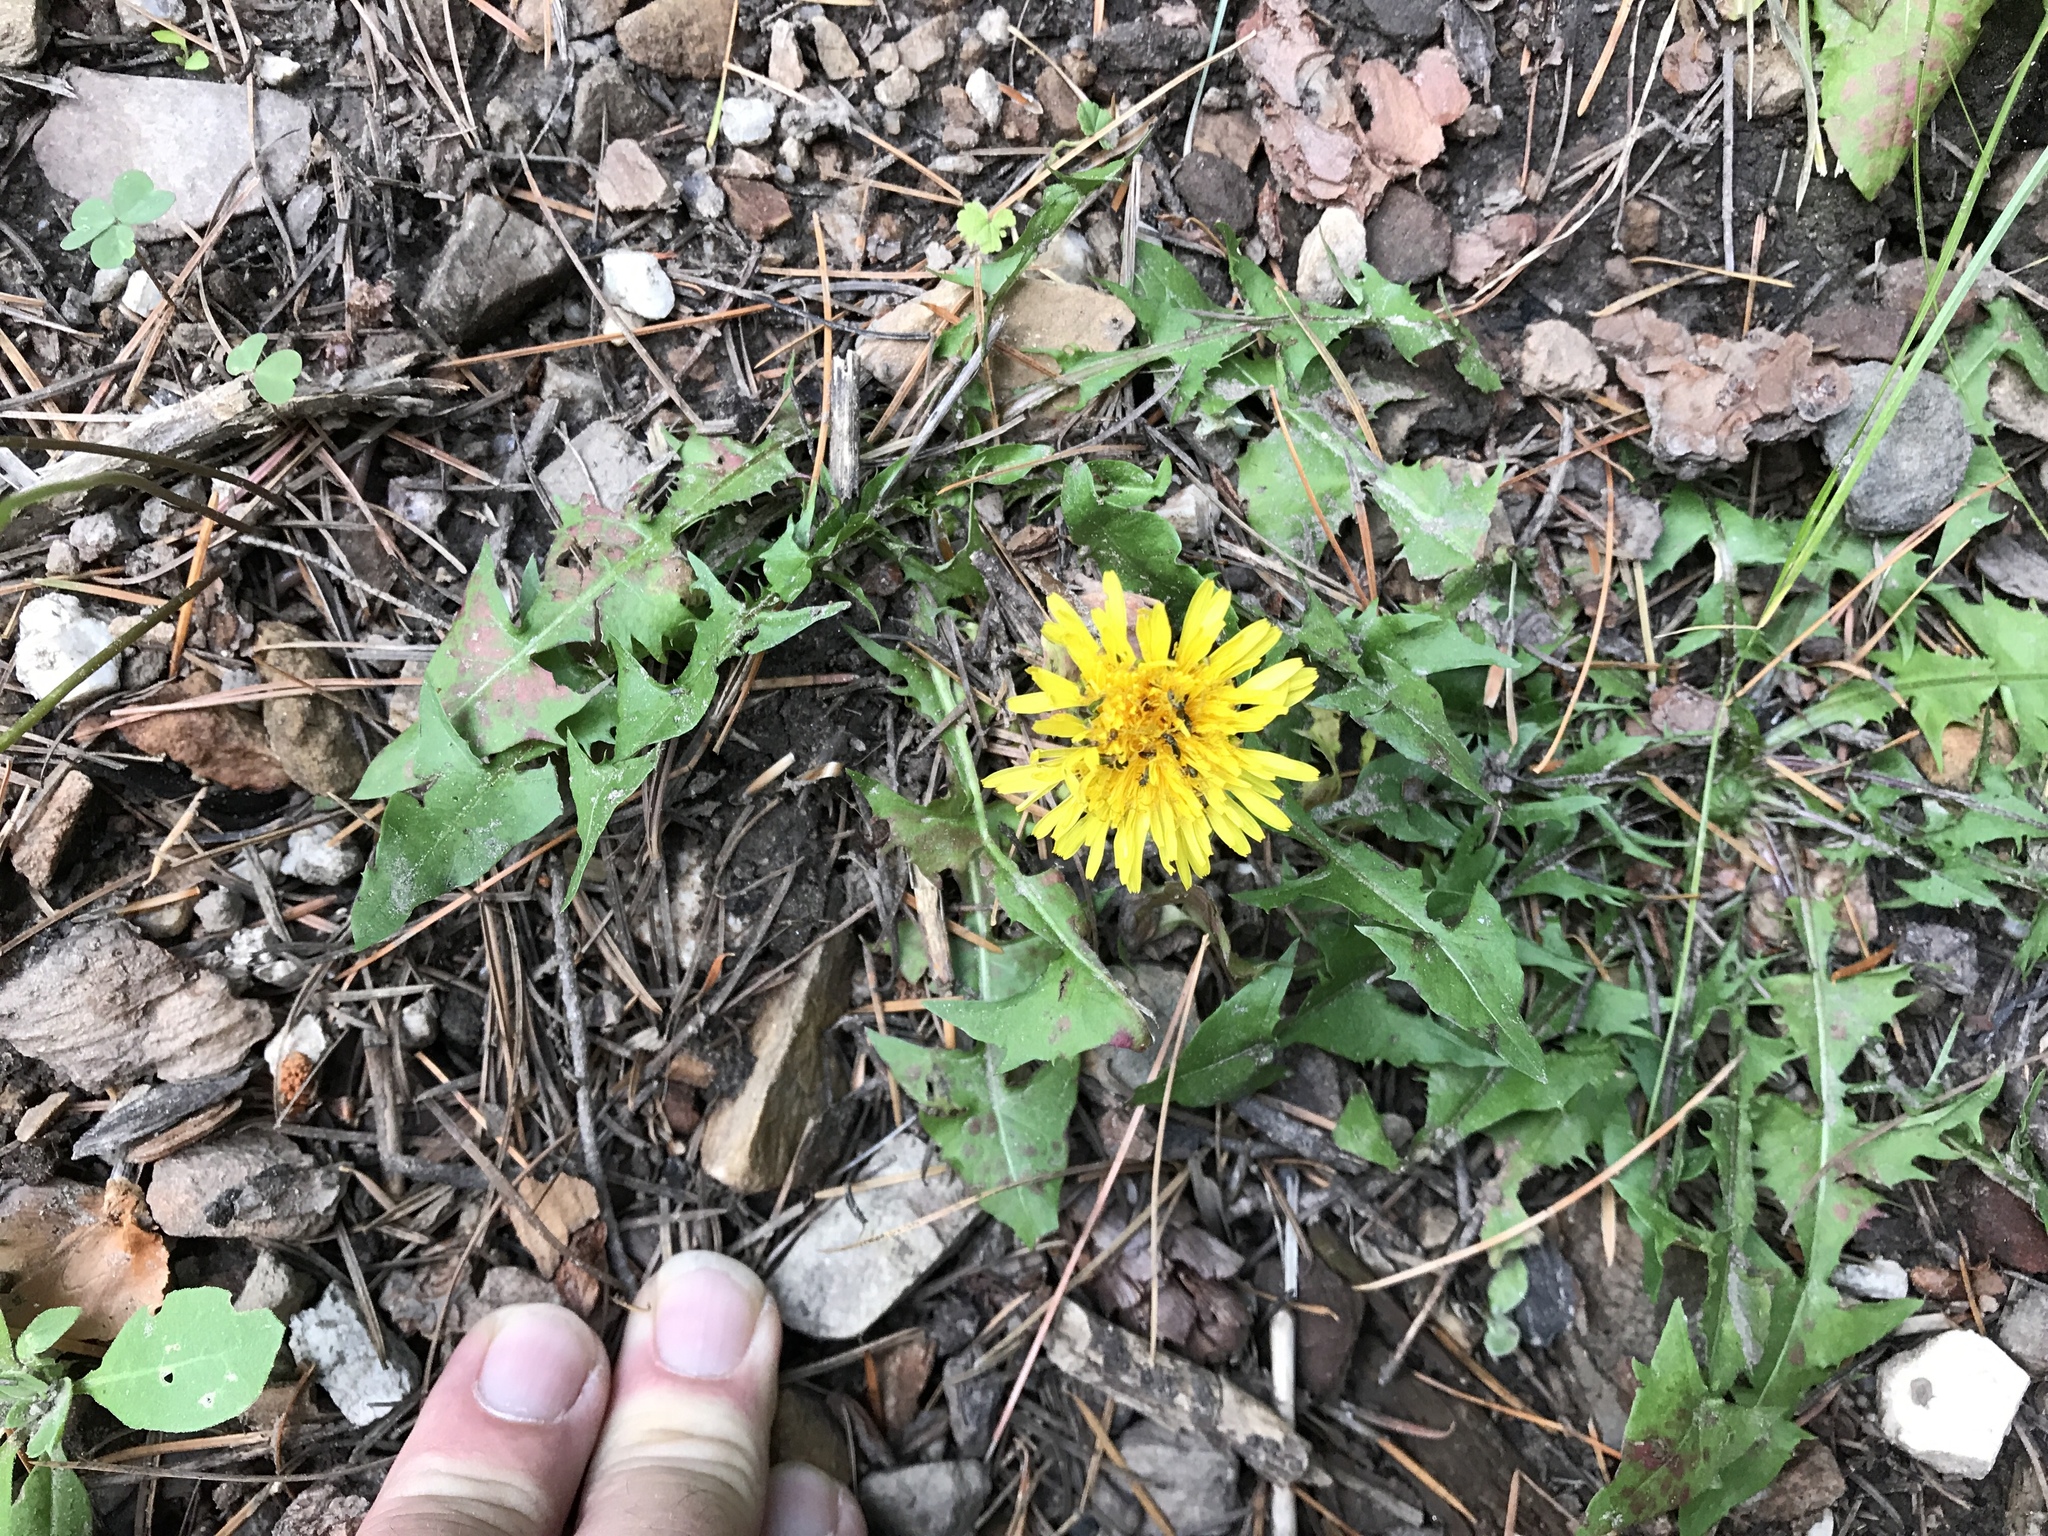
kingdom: Plantae
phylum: Tracheophyta
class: Magnoliopsida
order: Asterales
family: Asteraceae
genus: Taraxacum
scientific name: Taraxacum officinale
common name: Common dandelion
